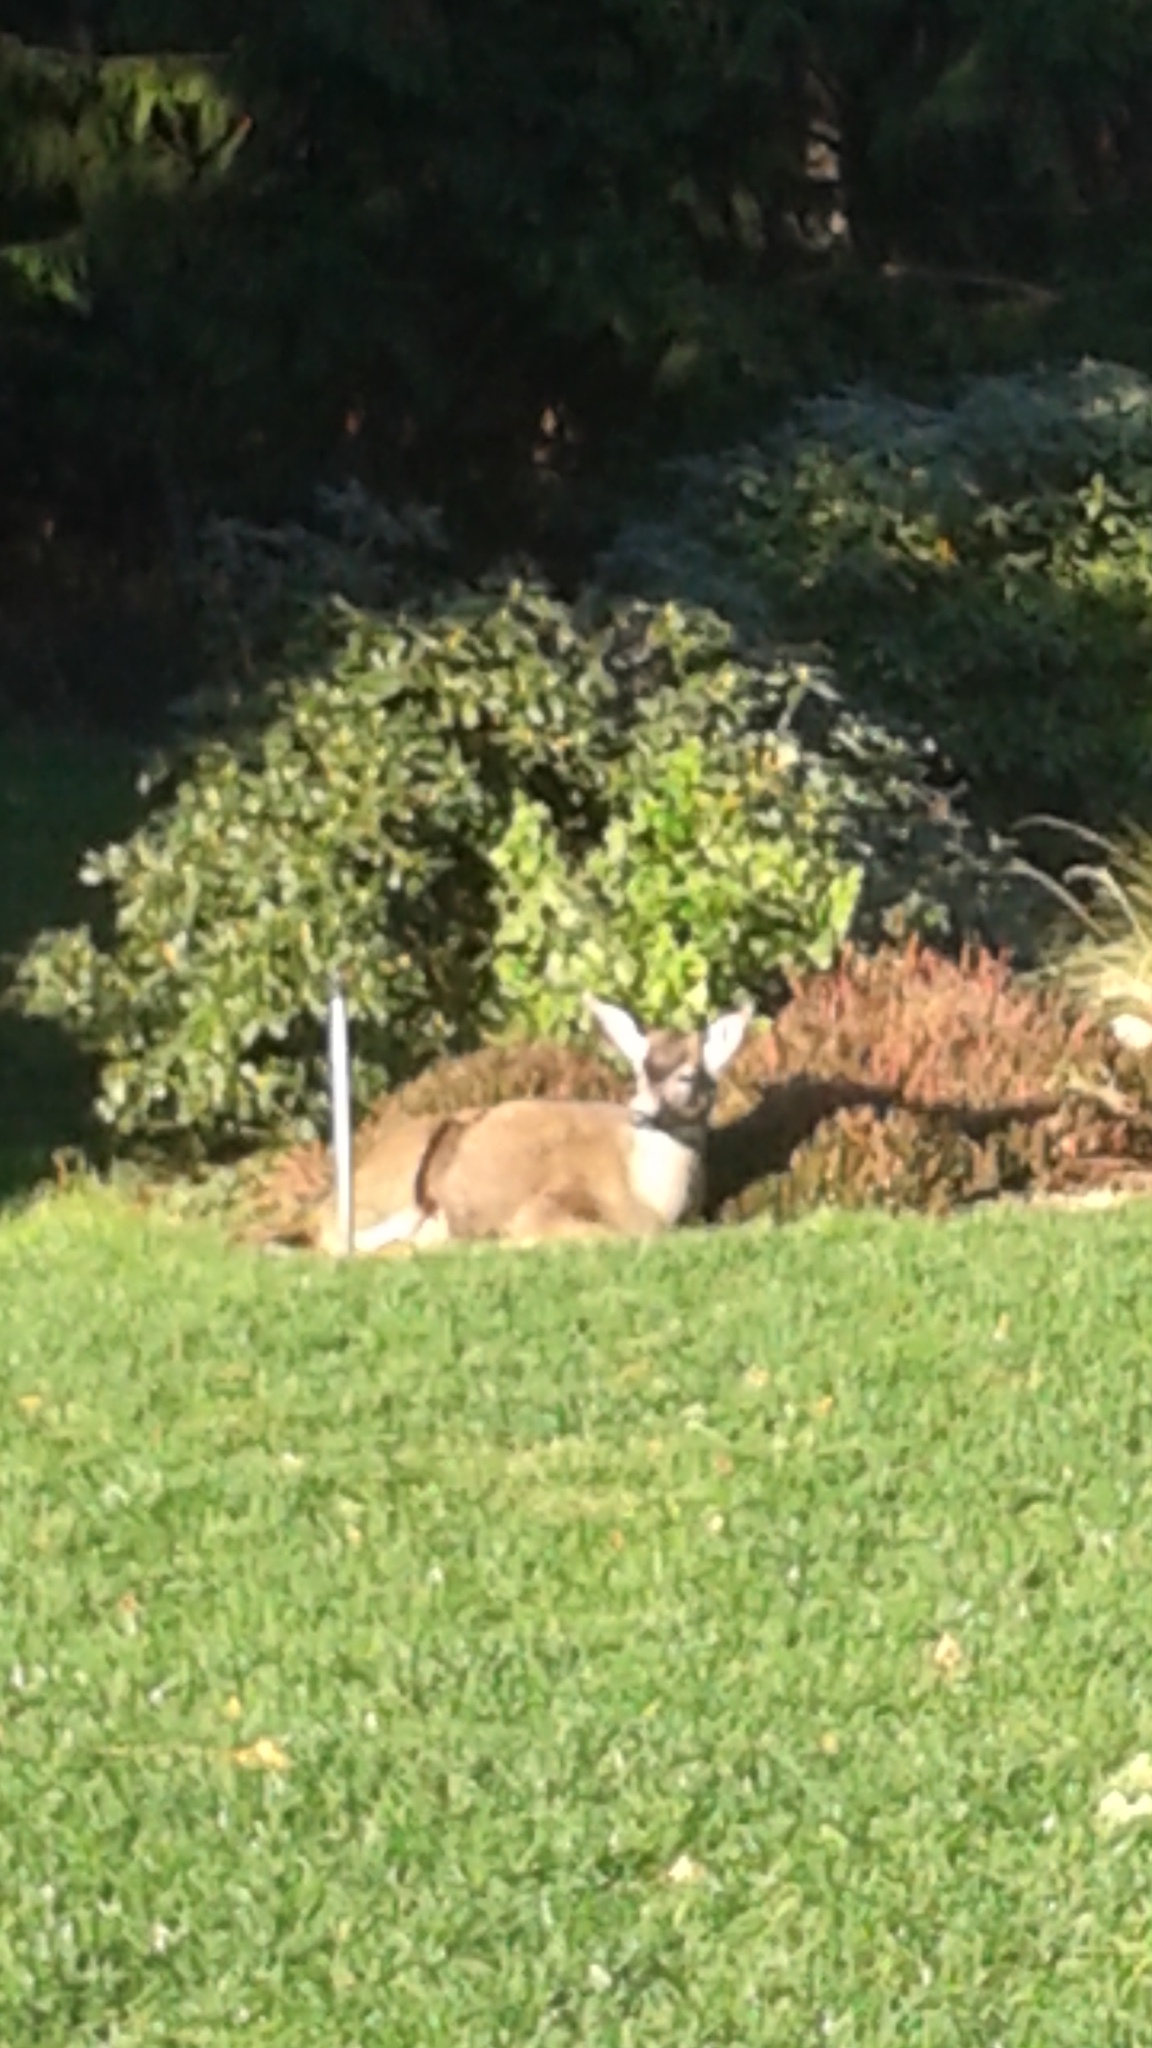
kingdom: Animalia
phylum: Chordata
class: Mammalia
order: Artiodactyla
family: Cervidae
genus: Odocoileus
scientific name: Odocoileus hemionus
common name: Mule deer
